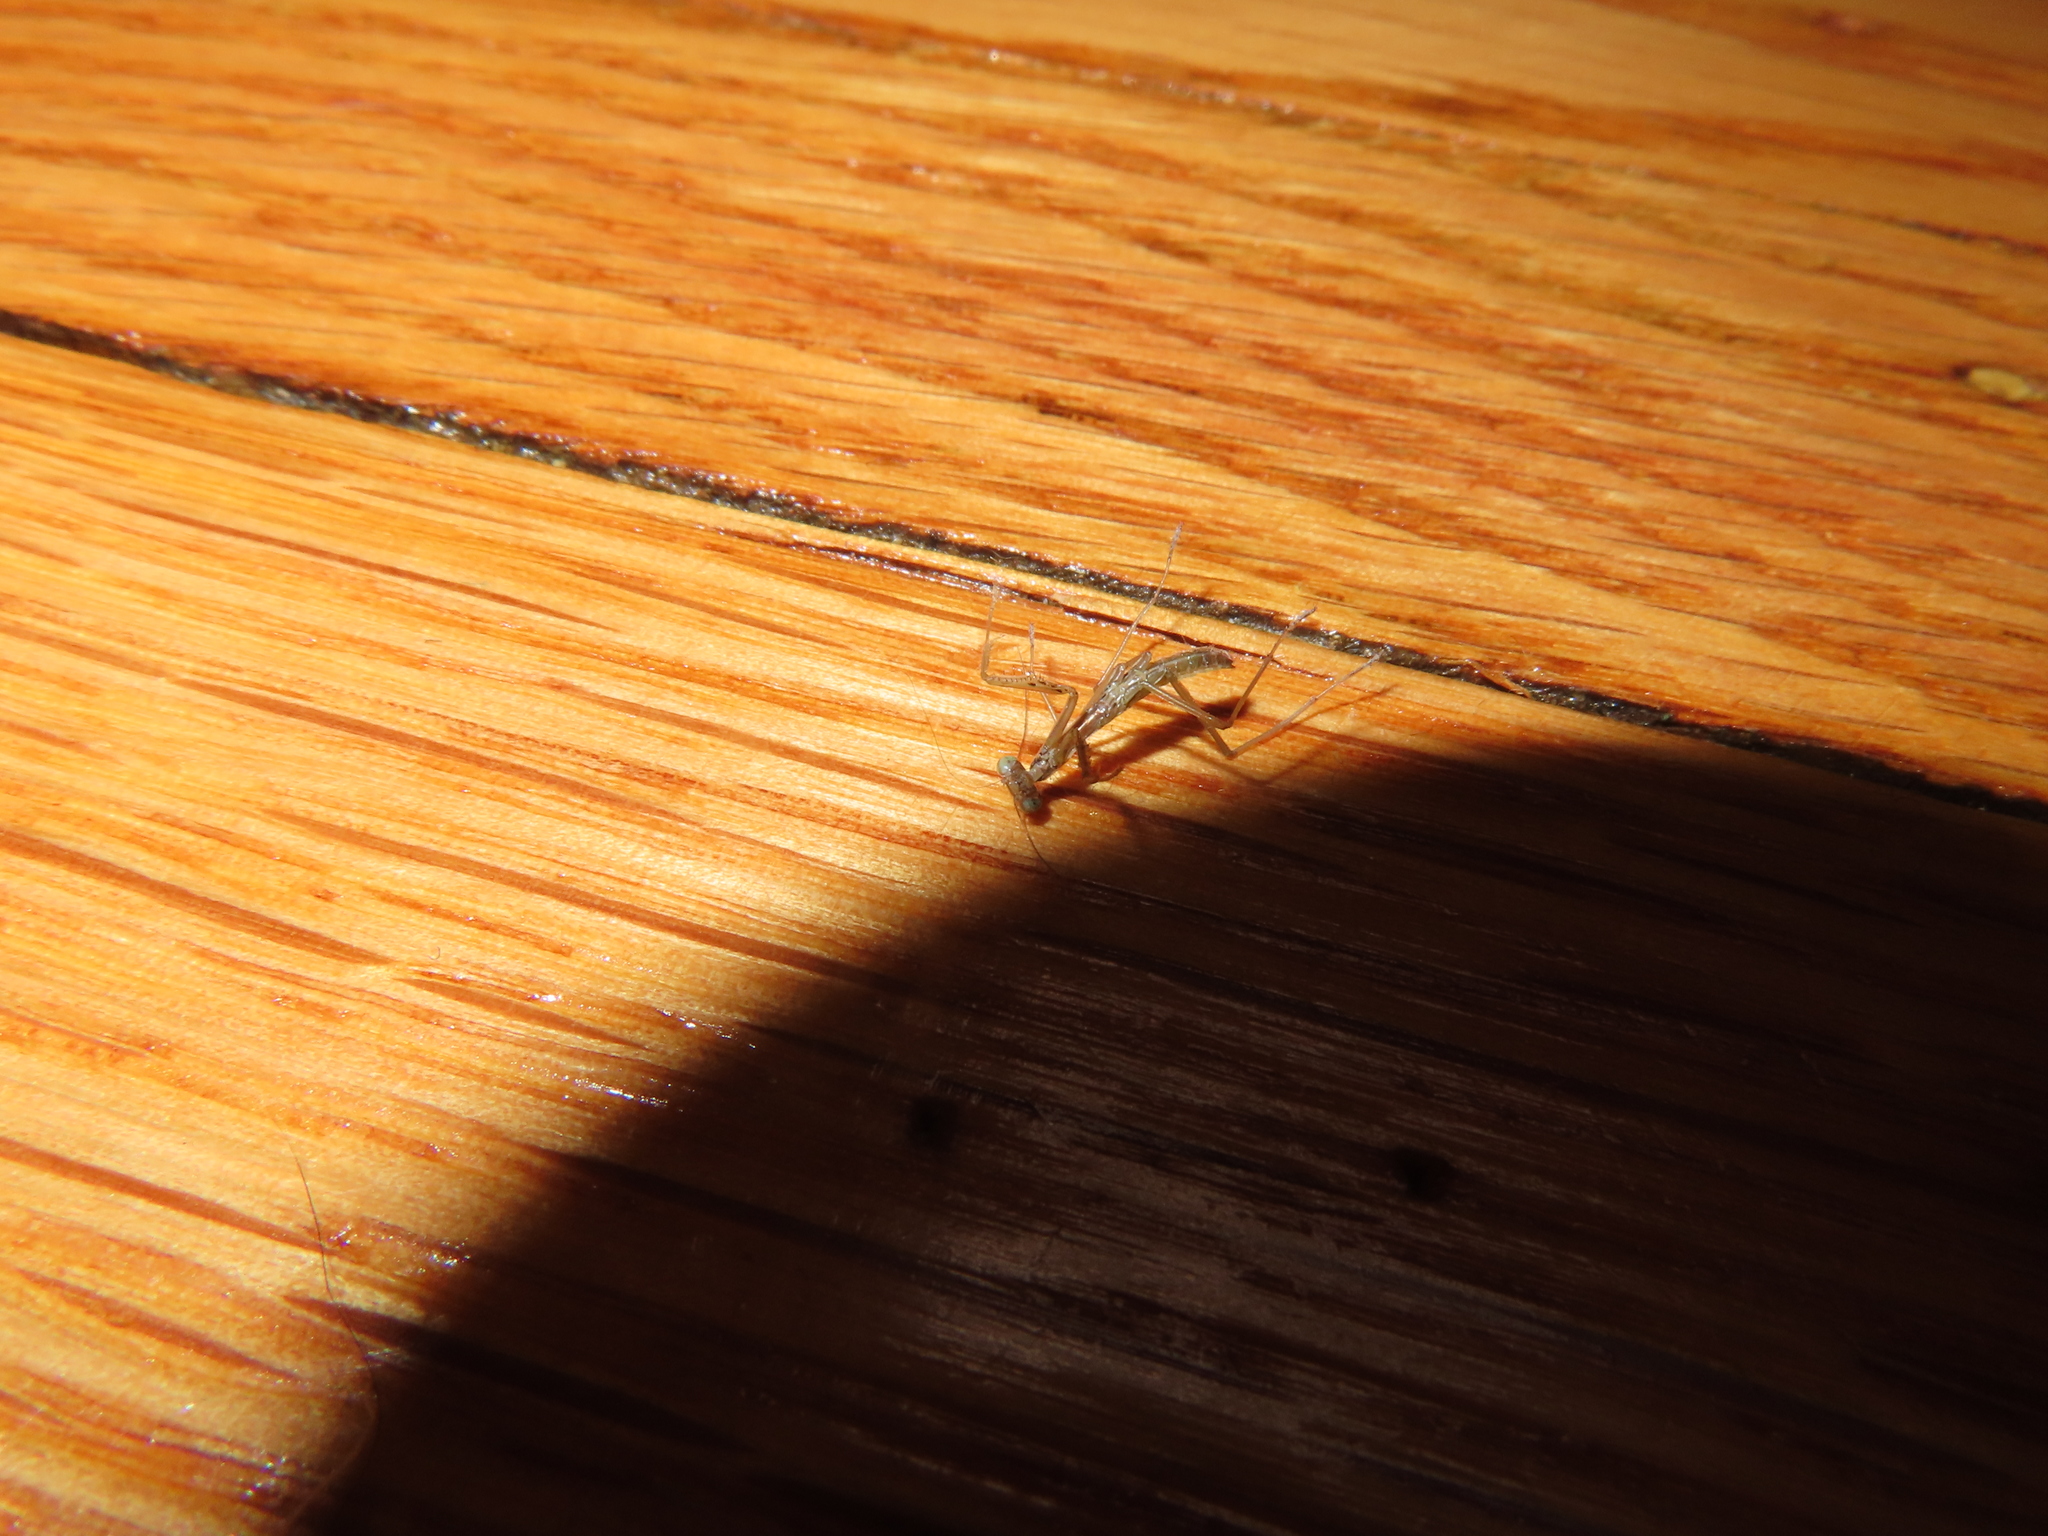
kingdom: Animalia
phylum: Arthropoda
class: Insecta
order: Mantodea
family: Mantidae
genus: Tenodera
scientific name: Tenodera sinensis
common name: Chinese mantis
